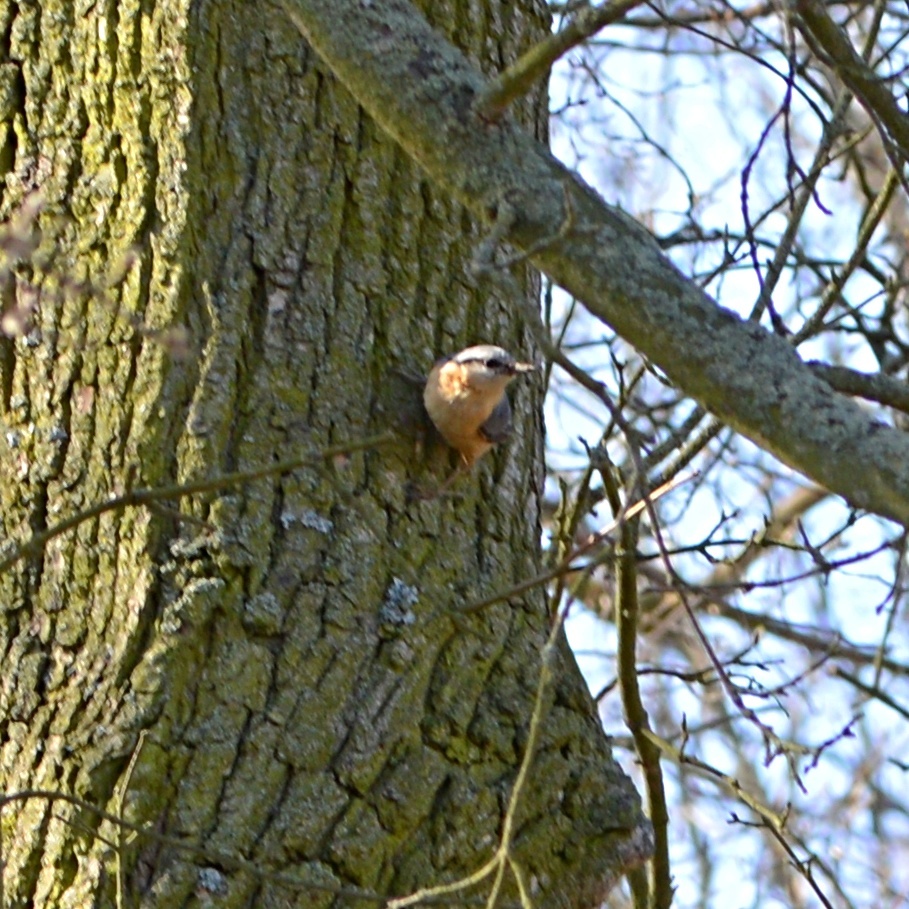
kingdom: Animalia
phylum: Chordata
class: Aves
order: Passeriformes
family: Sittidae
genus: Sitta
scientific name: Sitta europaea
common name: Eurasian nuthatch
